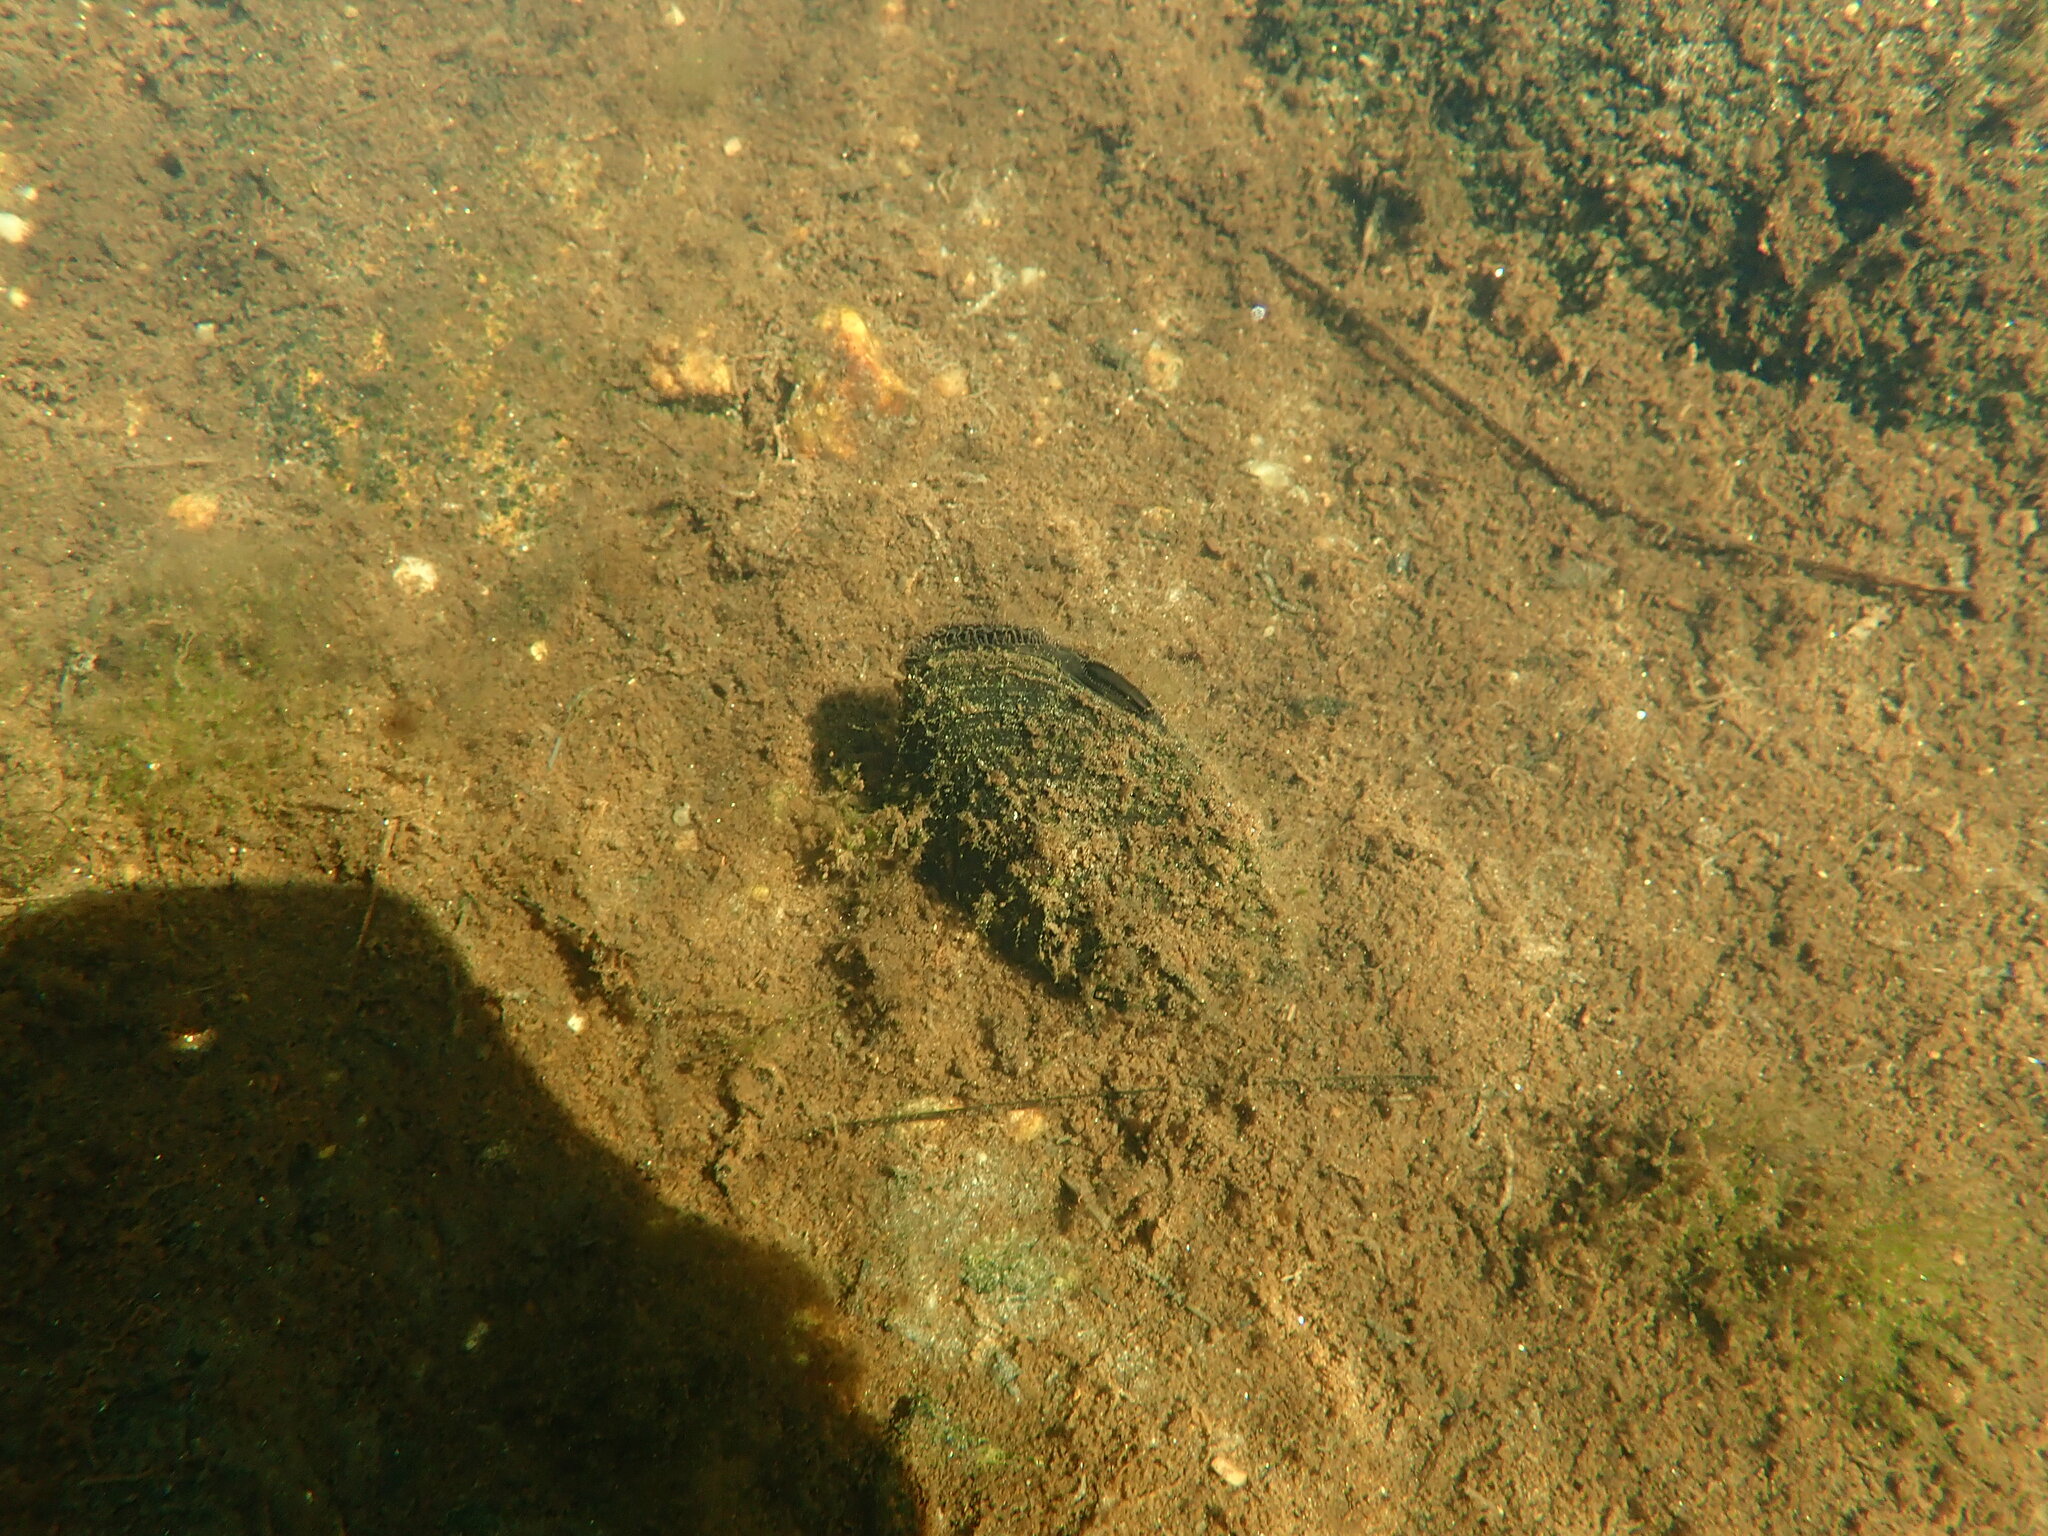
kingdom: Animalia
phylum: Mollusca
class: Bivalvia
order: Unionida
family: Unionidae
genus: Elliptio
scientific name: Elliptio complanata
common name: Eastern elliptio
